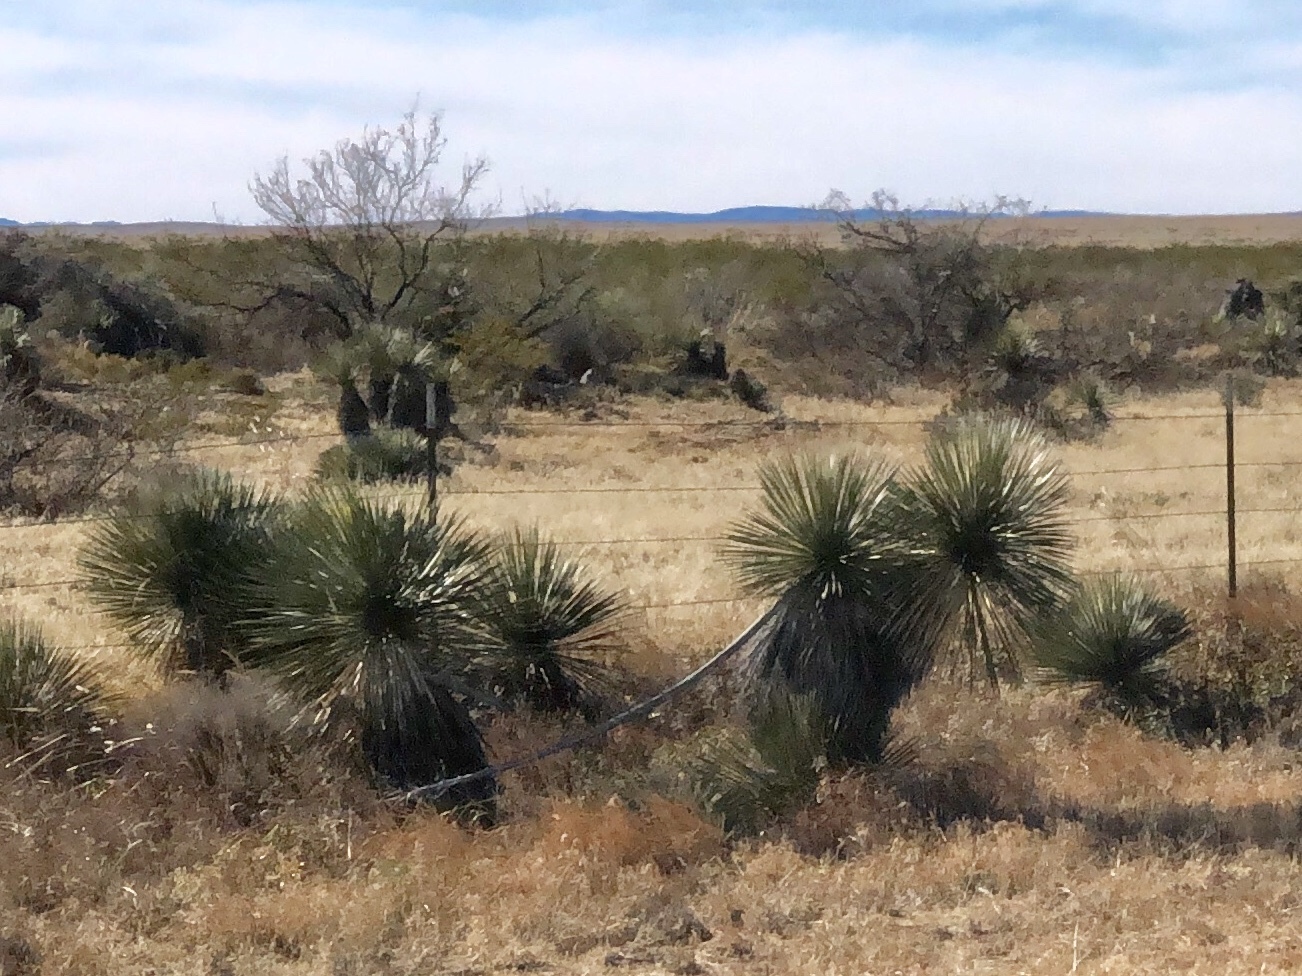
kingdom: Plantae
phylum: Tracheophyta
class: Liliopsida
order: Asparagales
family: Asparagaceae
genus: Yucca
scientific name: Yucca elata
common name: Palmella
